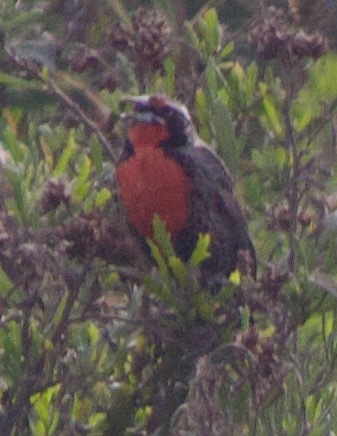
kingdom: Animalia
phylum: Chordata
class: Aves
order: Passeriformes
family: Icteridae
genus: Sturnella
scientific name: Sturnella loyca
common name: Long-tailed meadowlark
